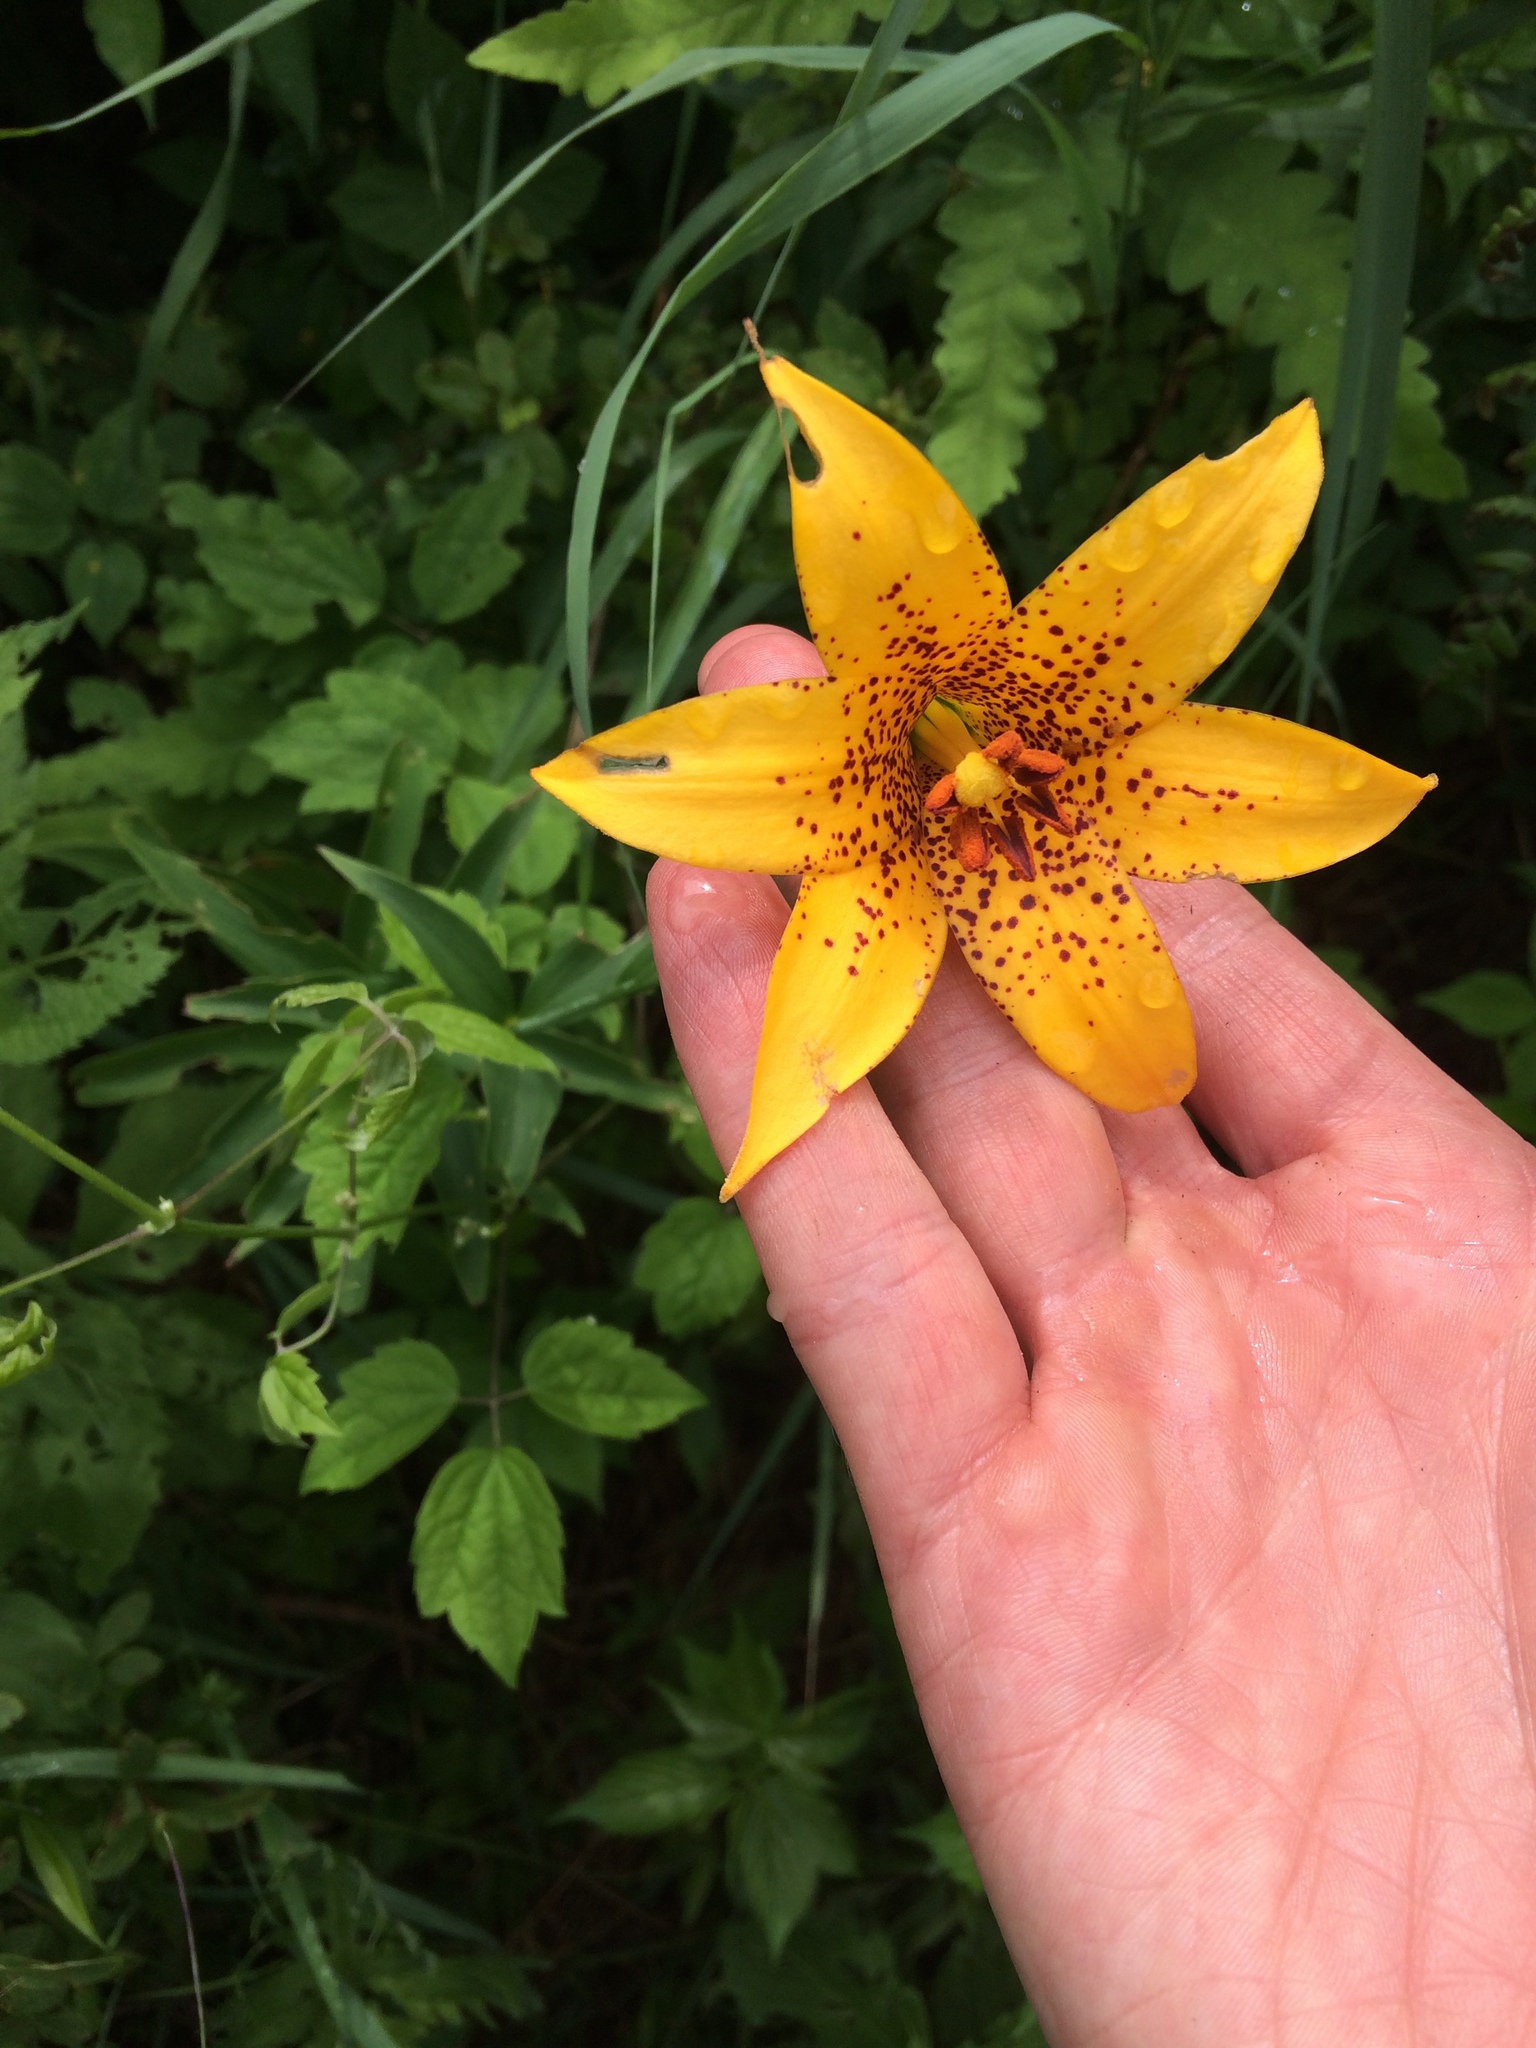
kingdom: Plantae
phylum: Tracheophyta
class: Liliopsida
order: Liliales
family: Liliaceae
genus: Lilium
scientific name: Lilium canadense
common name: Canada lily
